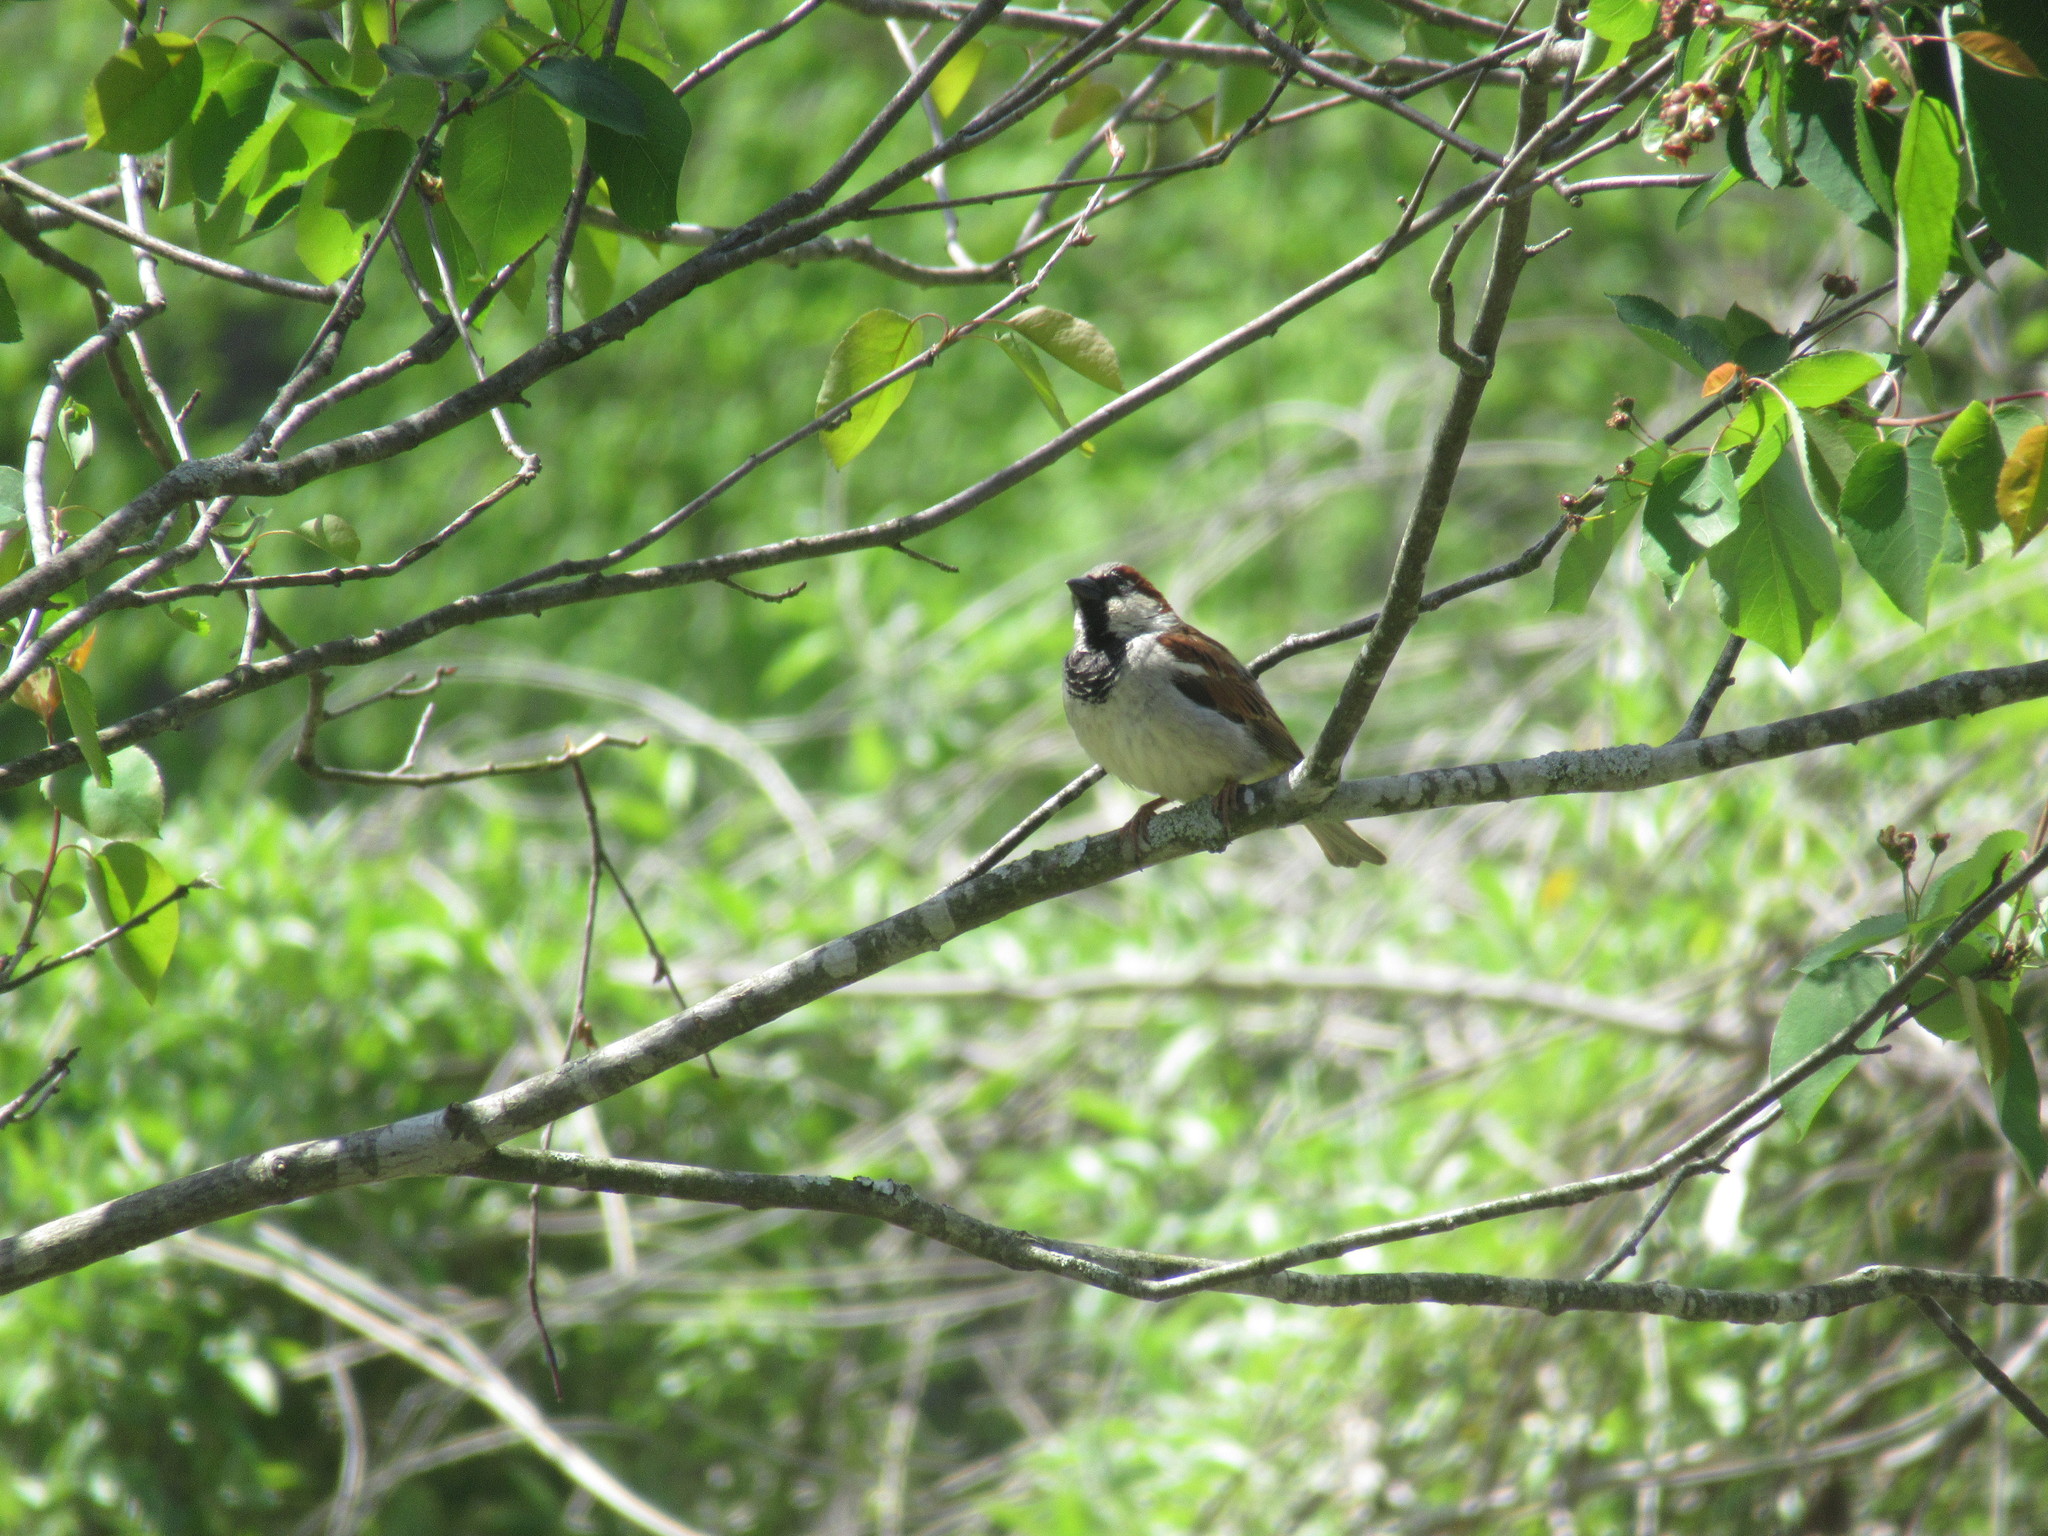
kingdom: Animalia
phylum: Chordata
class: Aves
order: Passeriformes
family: Passeridae
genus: Passer
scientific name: Passer domesticus
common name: House sparrow
